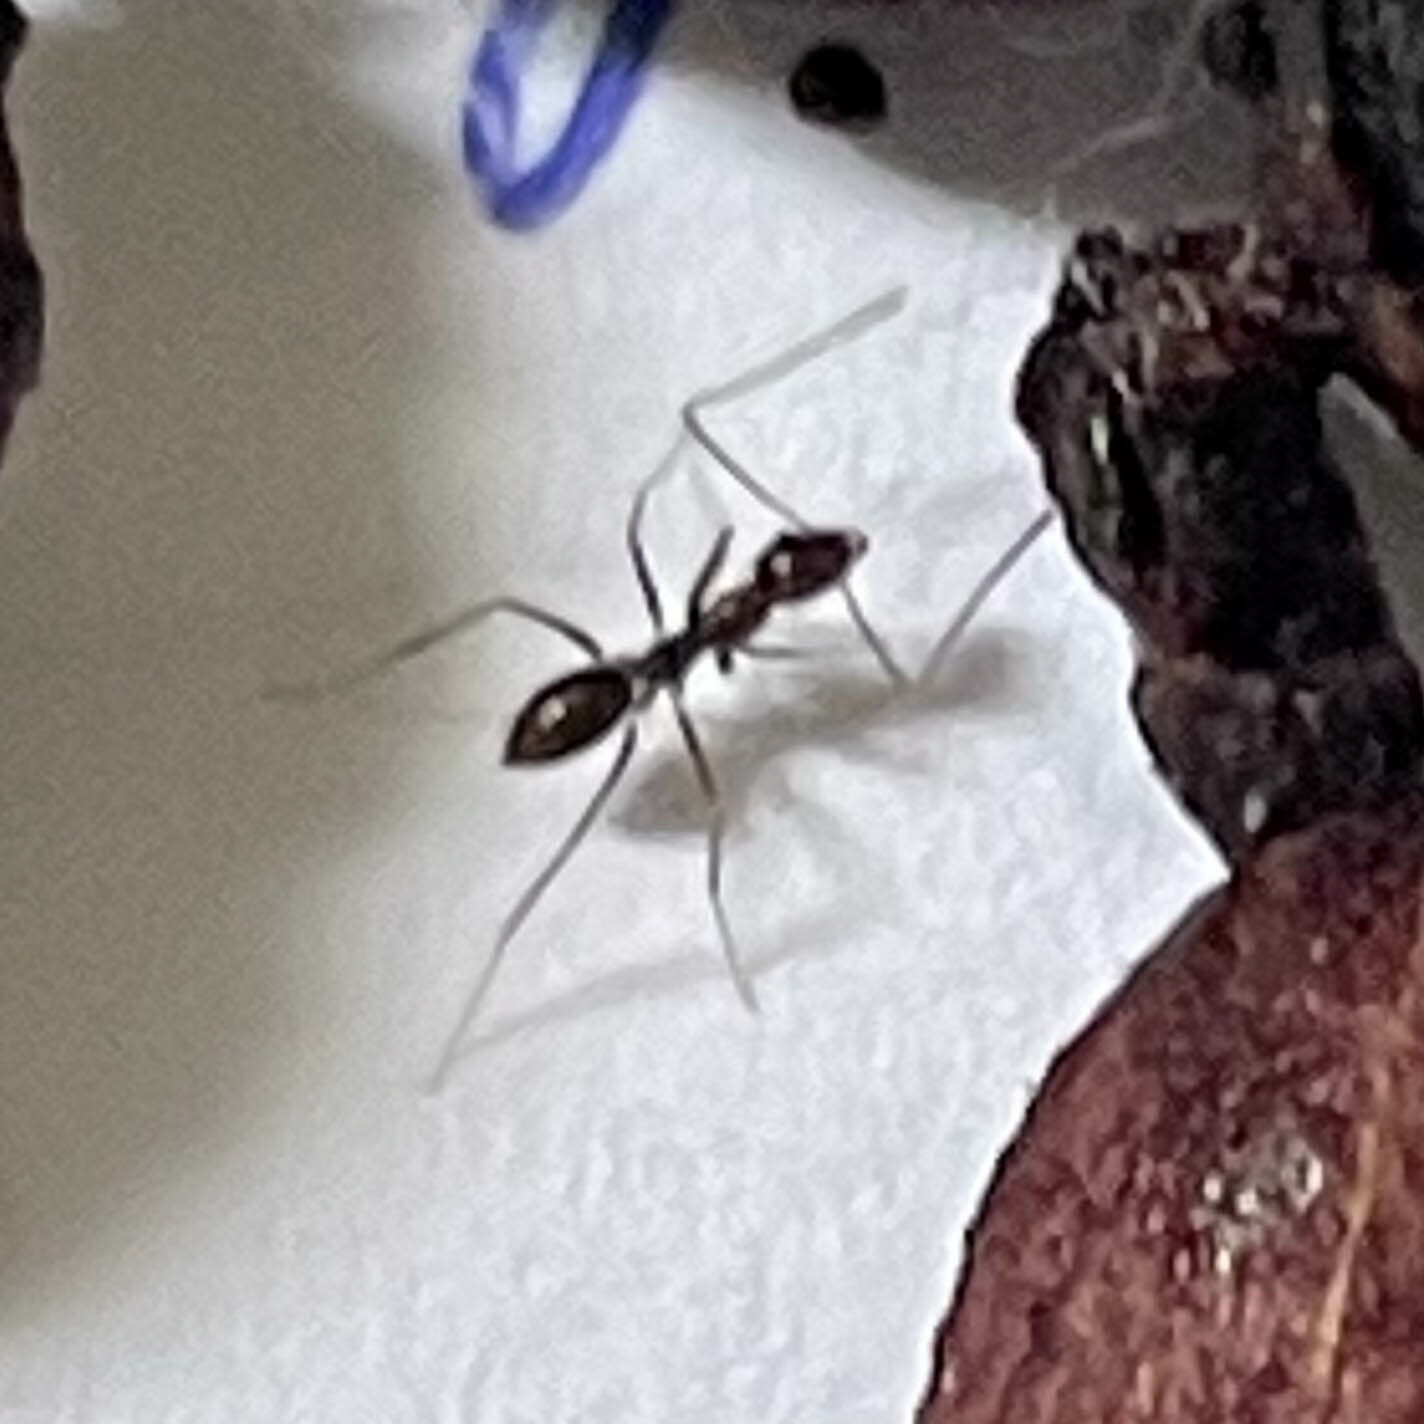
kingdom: Animalia
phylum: Arthropoda
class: Insecta
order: Hymenoptera
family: Formicidae
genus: Paratrechina
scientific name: Paratrechina longicornis
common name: Longhorned crazy ant
